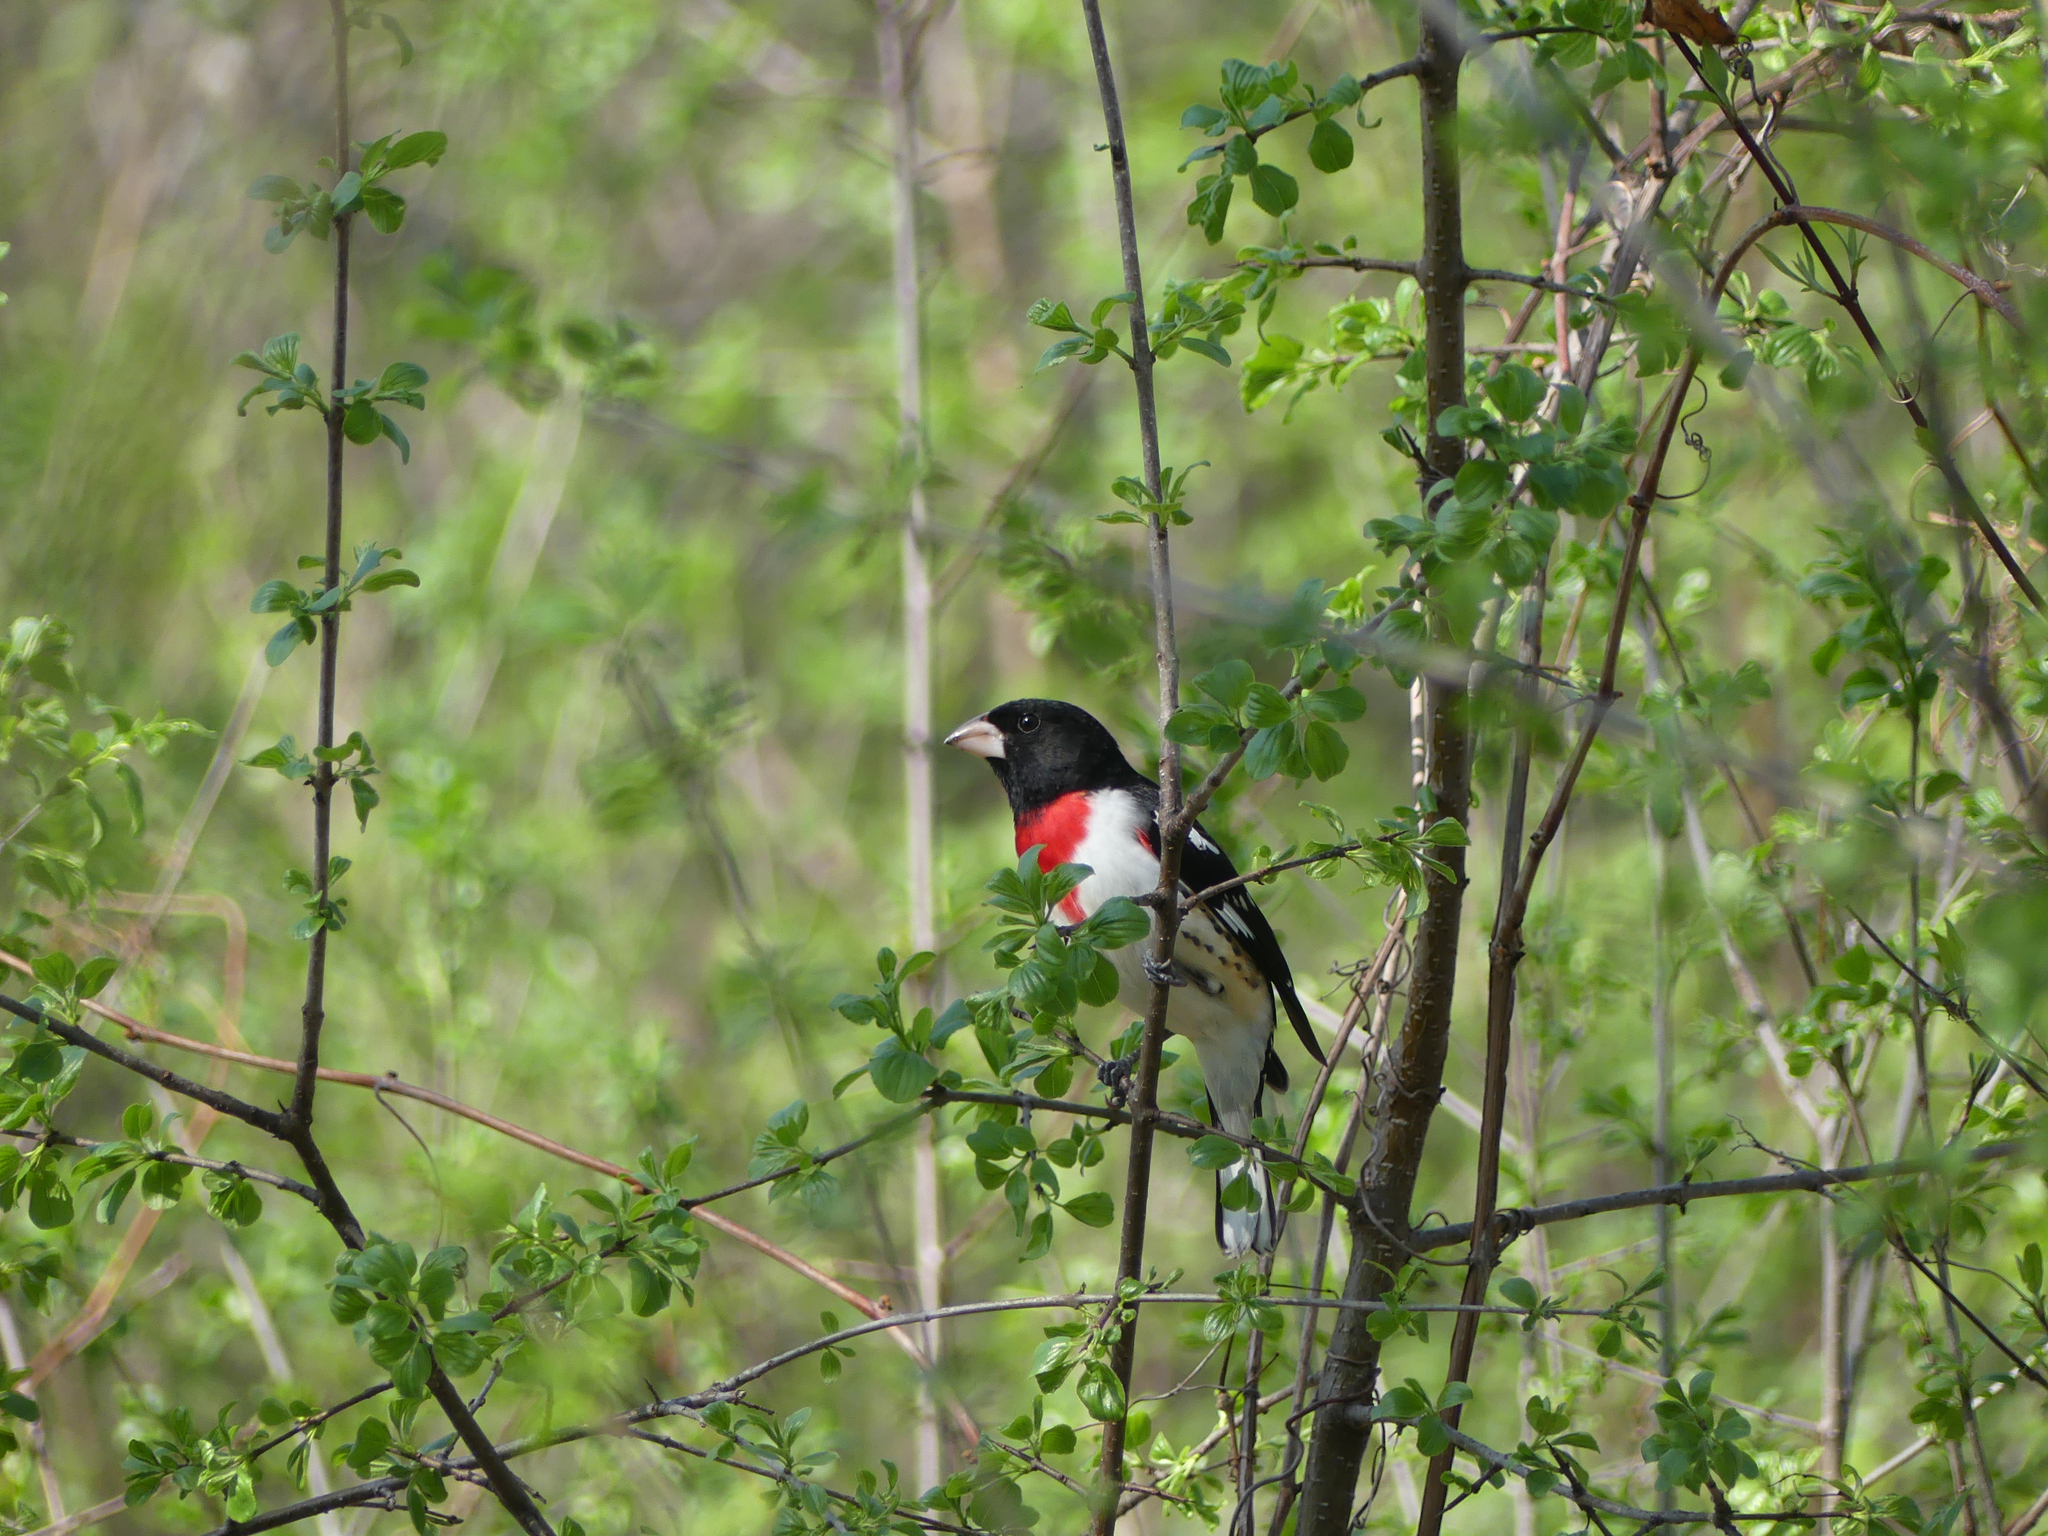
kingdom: Animalia
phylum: Chordata
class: Aves
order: Passeriformes
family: Cardinalidae
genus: Pheucticus
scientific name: Pheucticus ludovicianus
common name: Rose-breasted grosbeak
